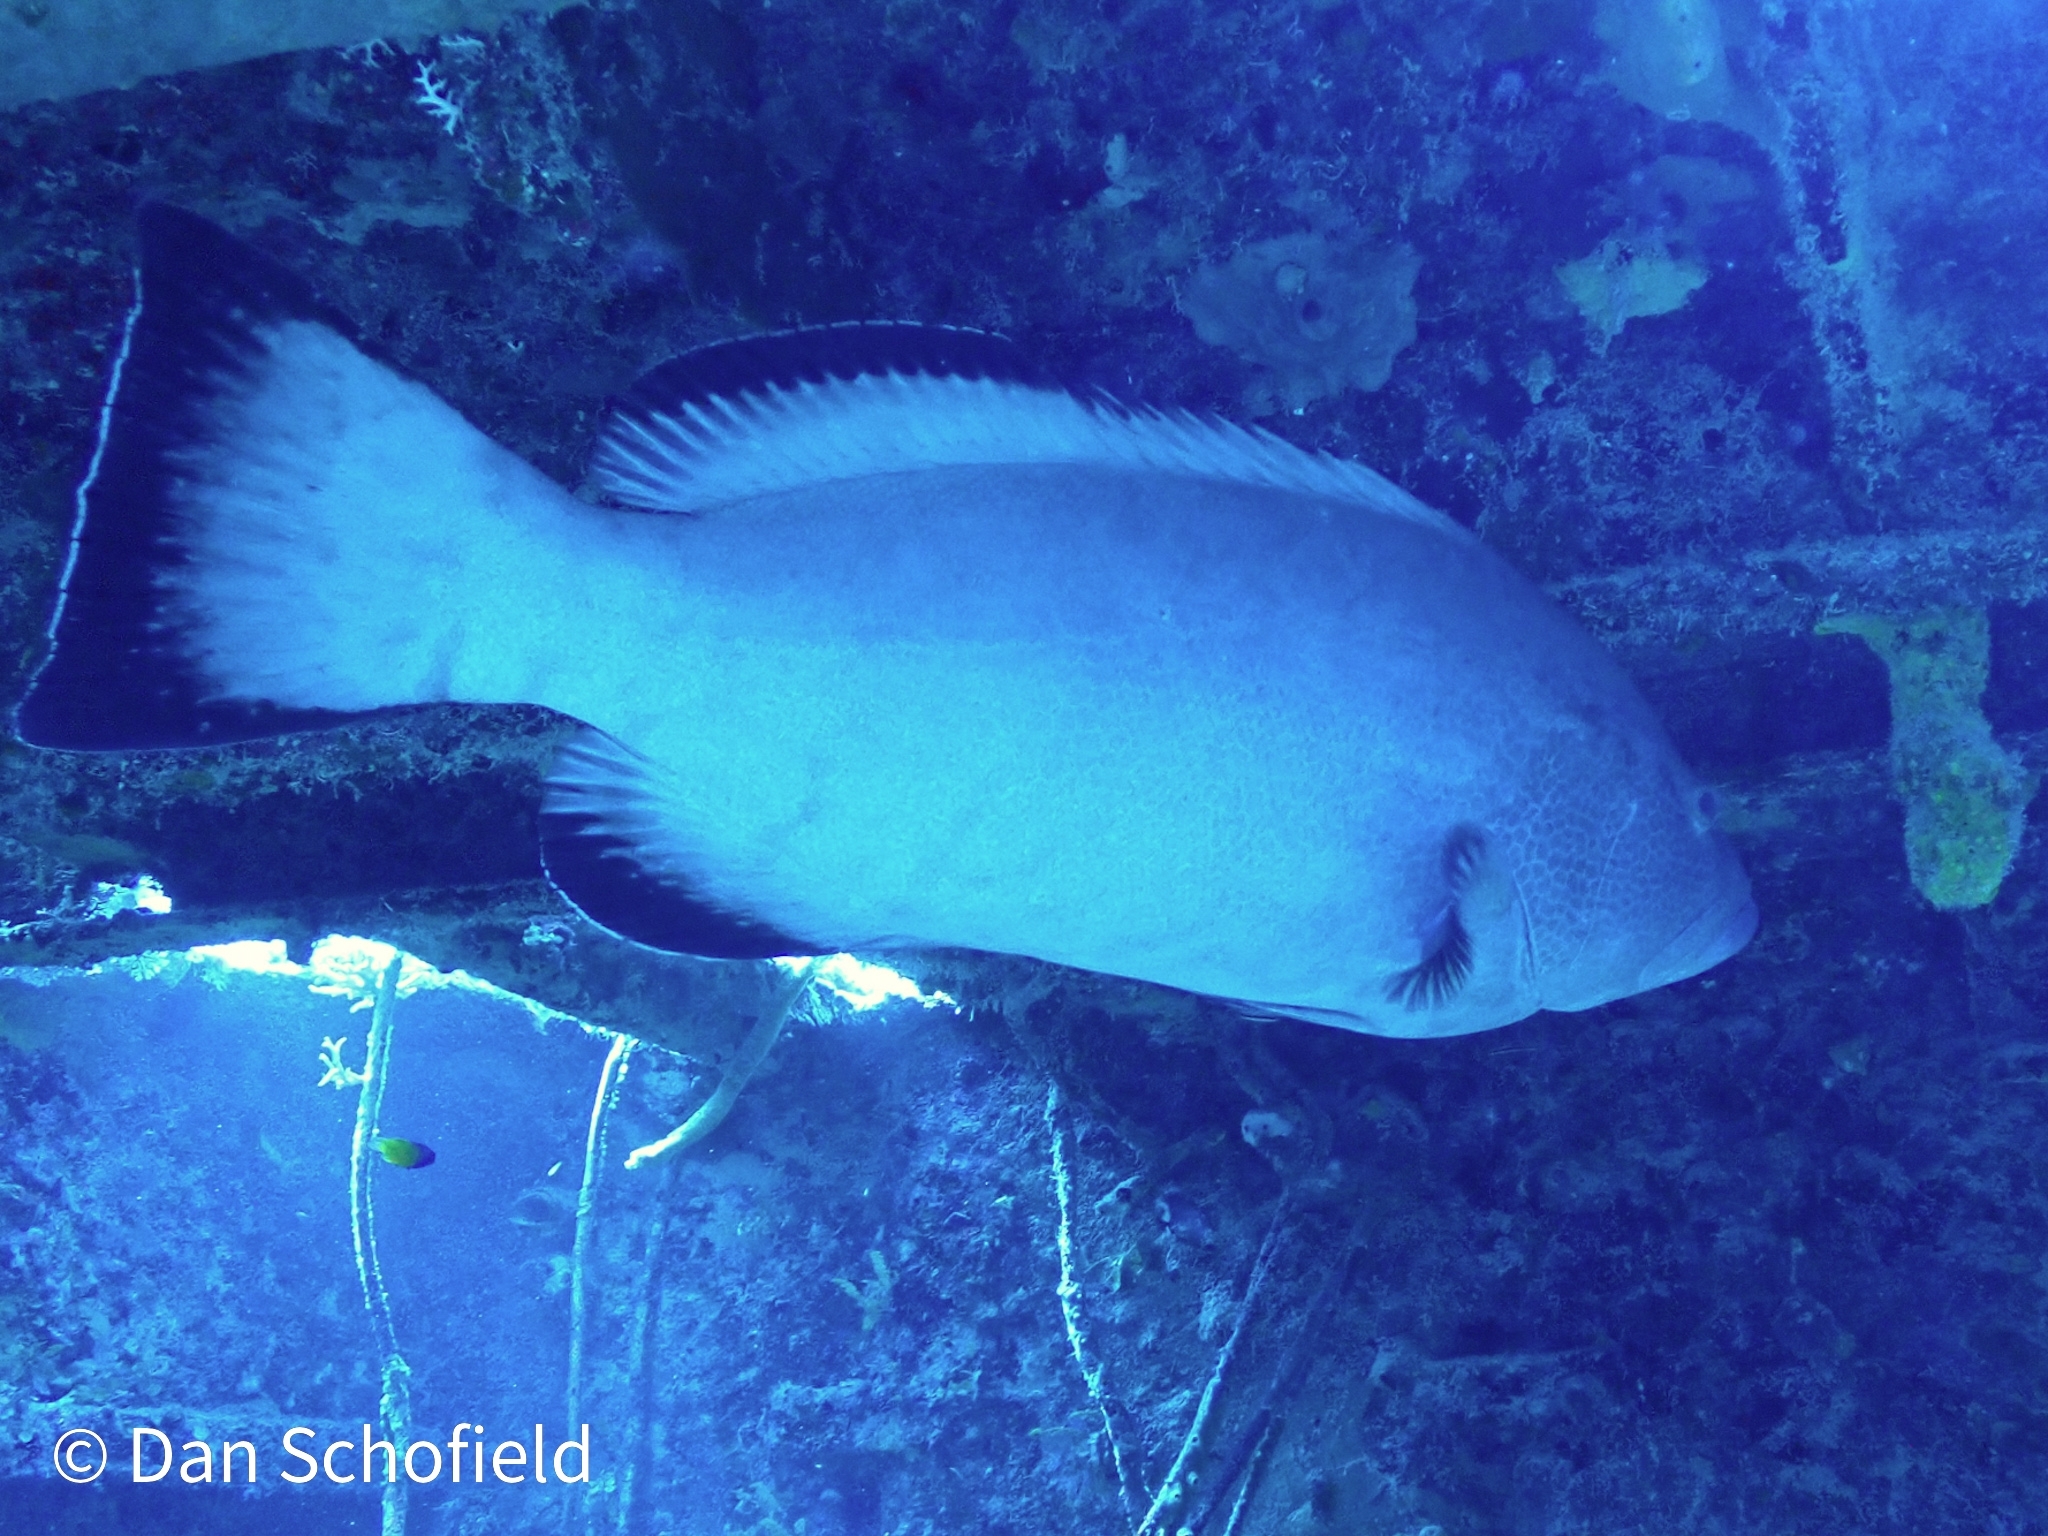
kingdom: Animalia
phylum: Chordata
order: Perciformes
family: Serranidae
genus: Mycteroperca
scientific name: Mycteroperca bonaci
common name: Black grouper
